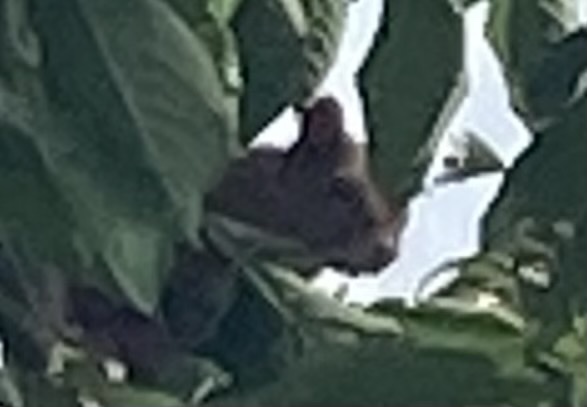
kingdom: Animalia
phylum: Chordata
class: Mammalia
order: Rodentia
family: Sciuridae
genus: Sciurus
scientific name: Sciurus vulgaris
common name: Eurasian red squirrel
